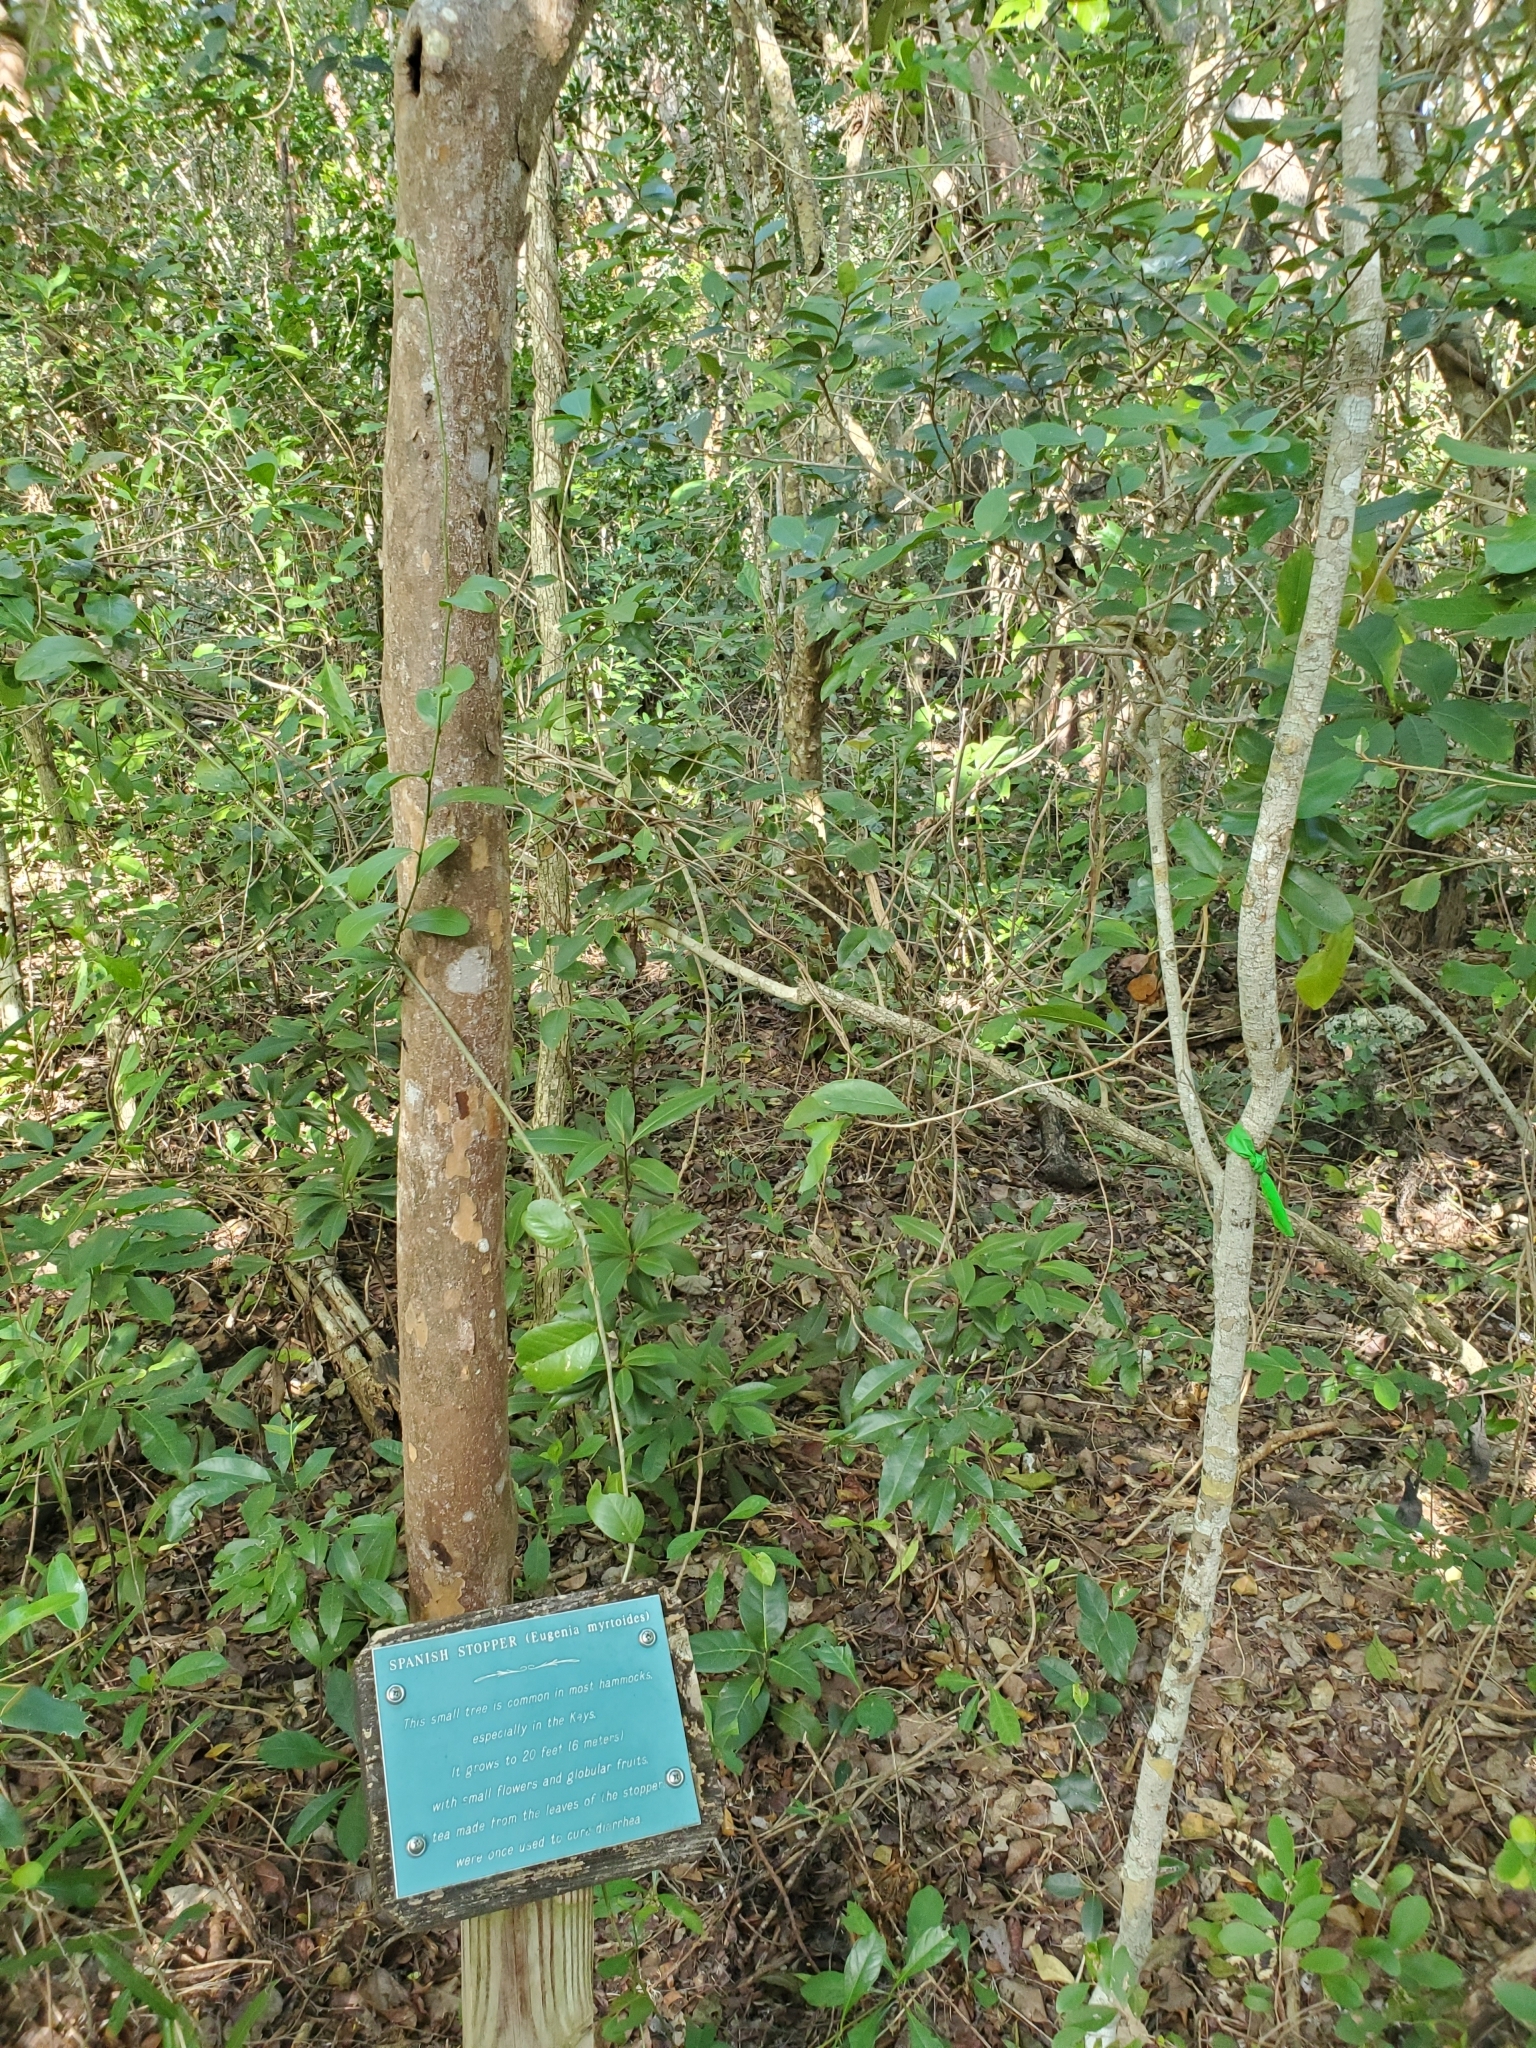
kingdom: Plantae
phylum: Tracheophyta
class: Magnoliopsida
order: Myrtales
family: Myrtaceae
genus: Eugenia
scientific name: Eugenia foetida
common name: White wattling
